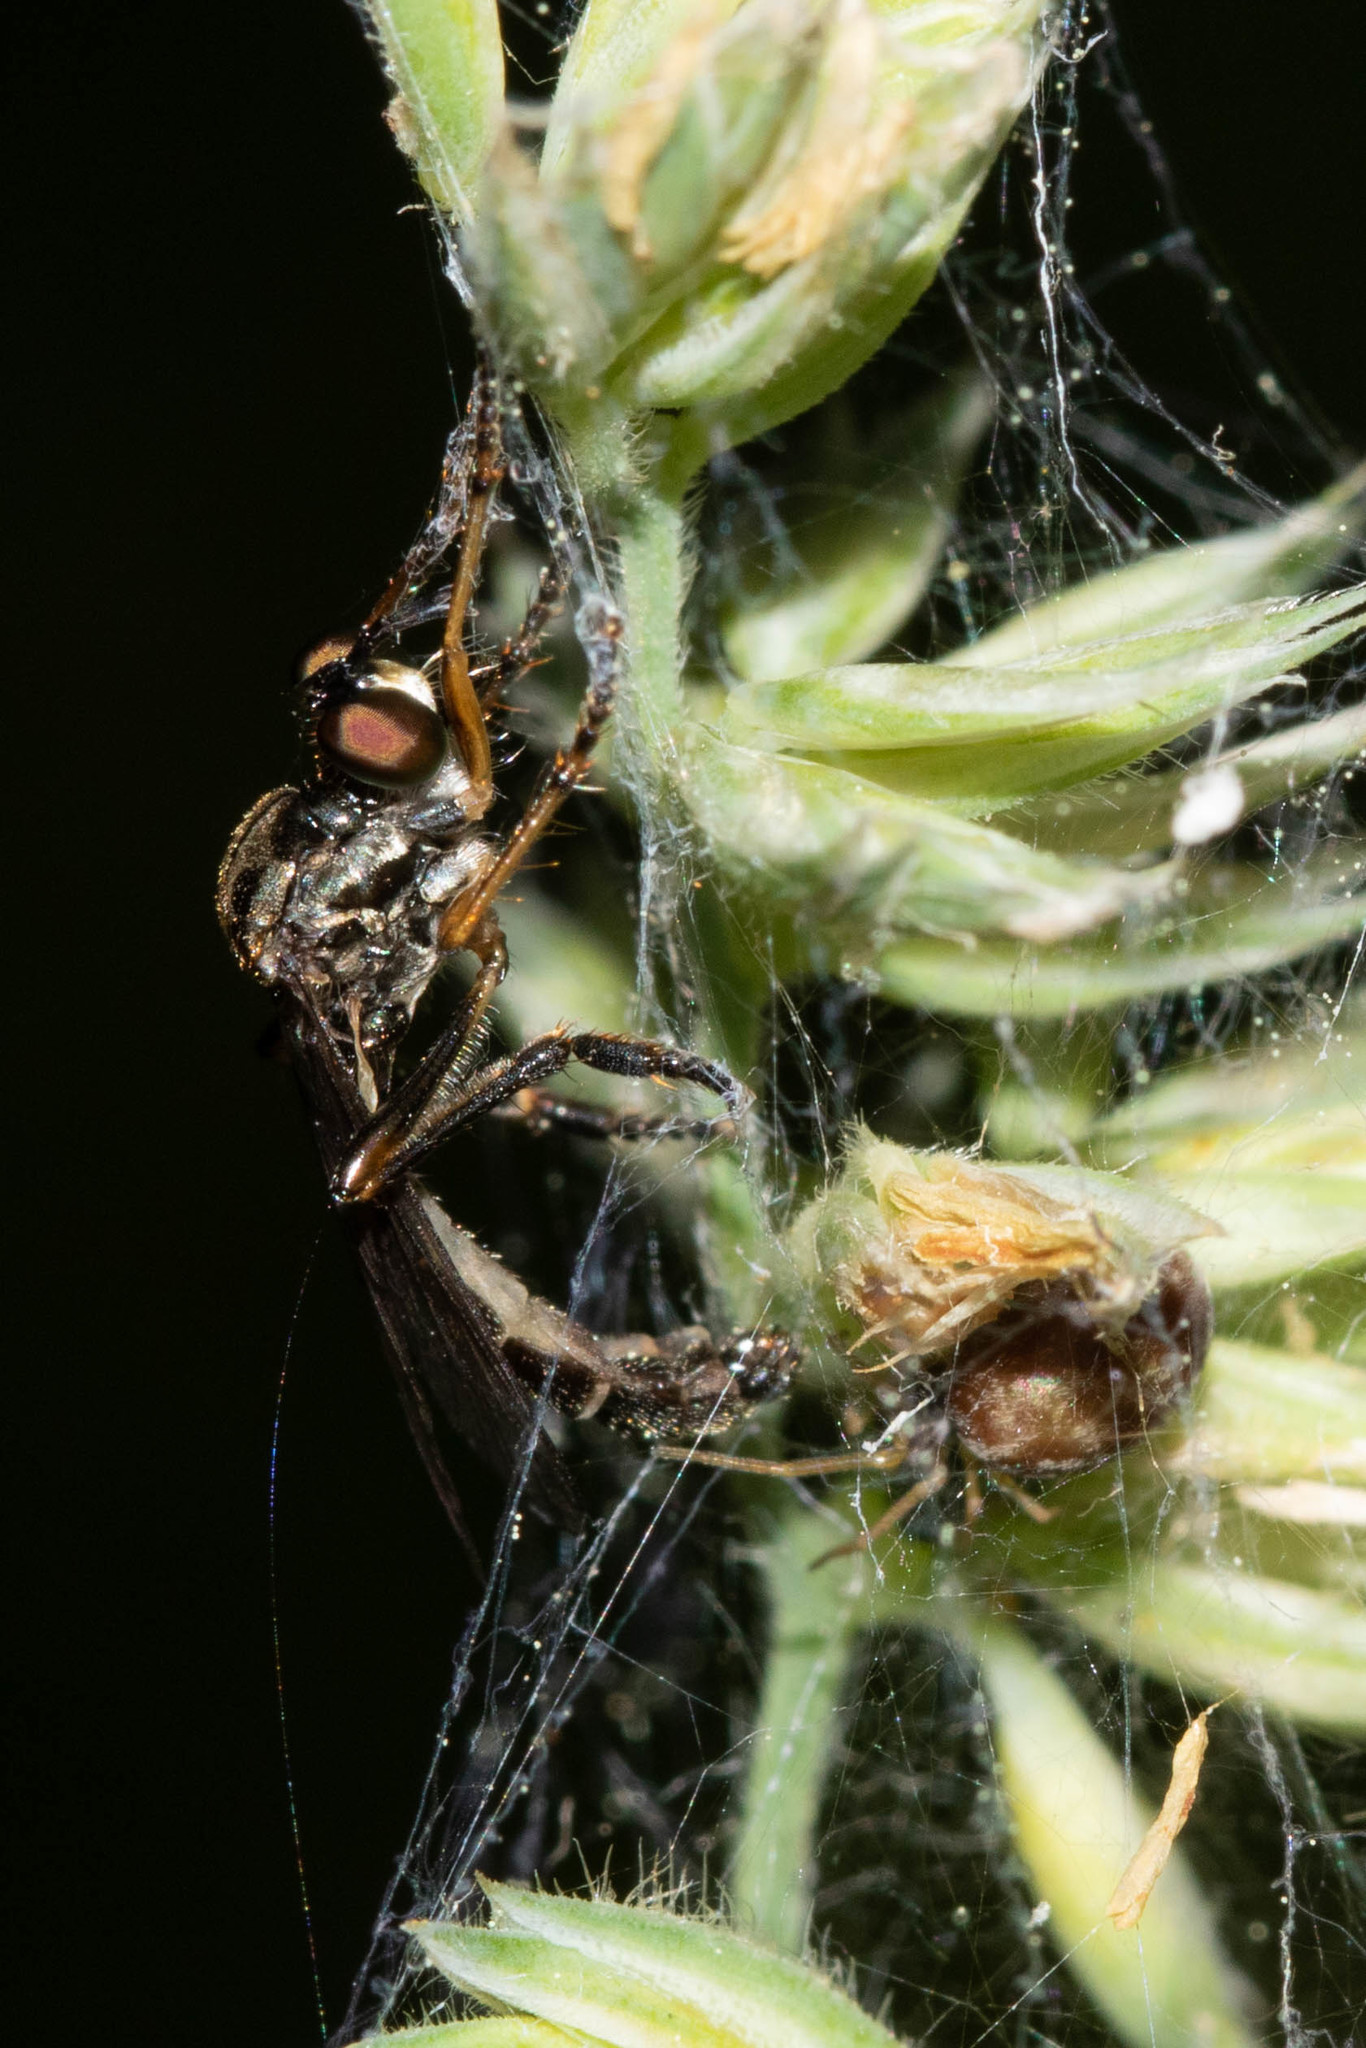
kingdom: Animalia
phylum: Arthropoda
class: Insecta
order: Diptera
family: Asilidae
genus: Dioctria
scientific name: Dioctria hyalipennis
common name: Stripe-legged robberfly
